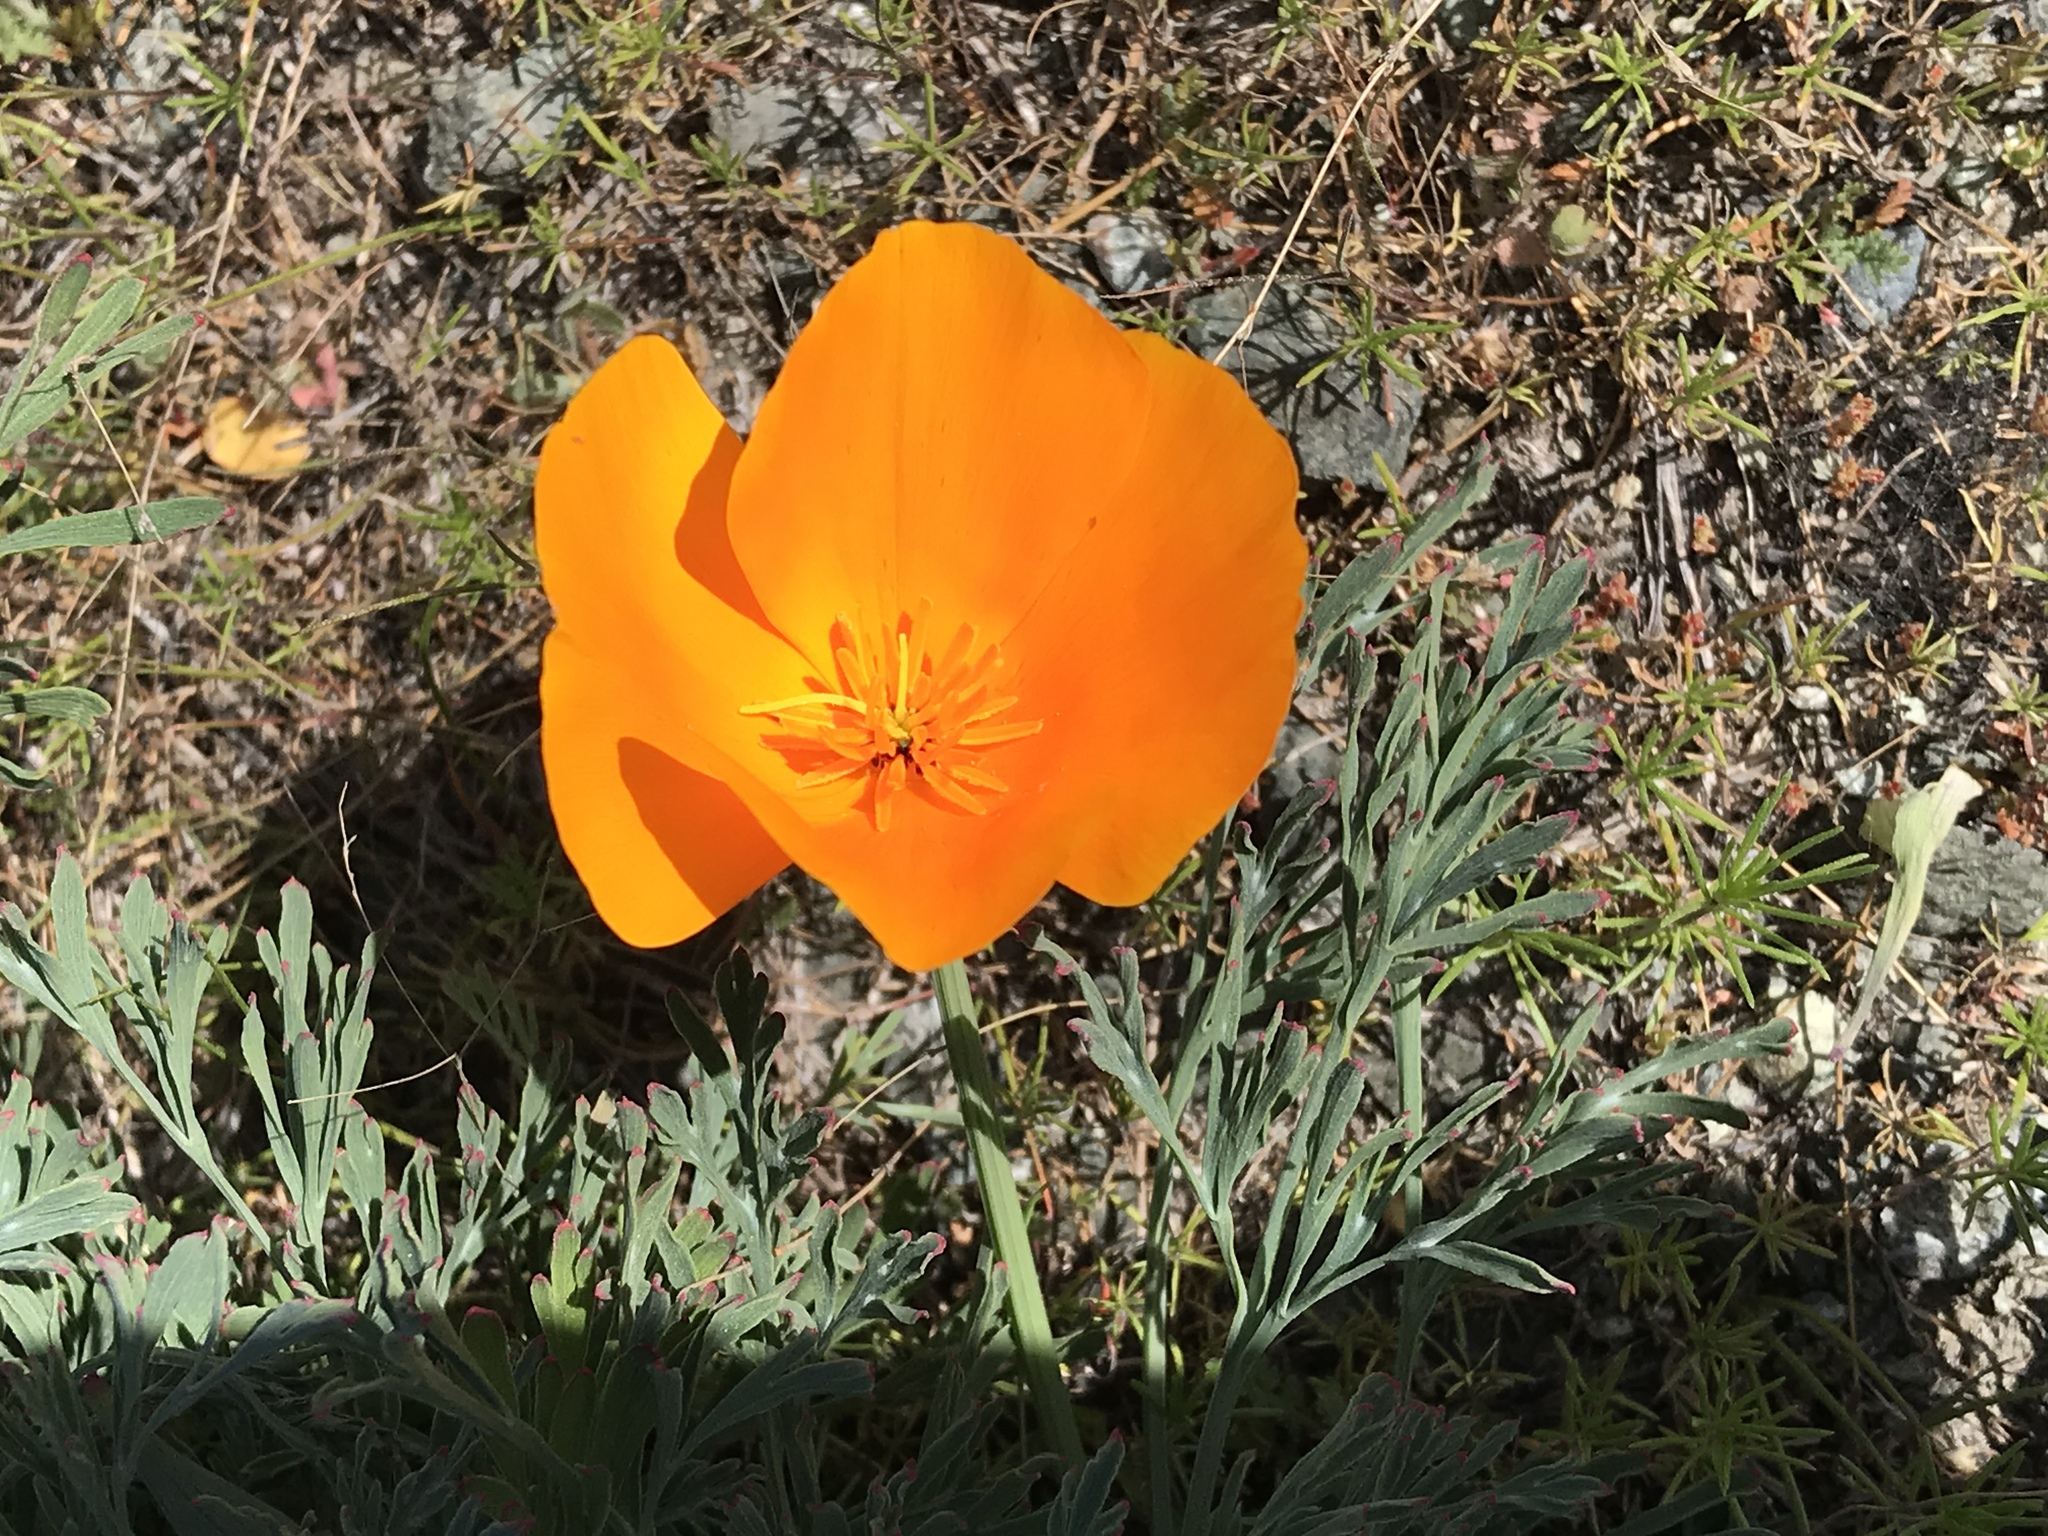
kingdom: Plantae
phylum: Tracheophyta
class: Magnoliopsida
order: Ranunculales
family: Papaveraceae
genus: Eschscholzia
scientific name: Eschscholzia californica
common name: California poppy
